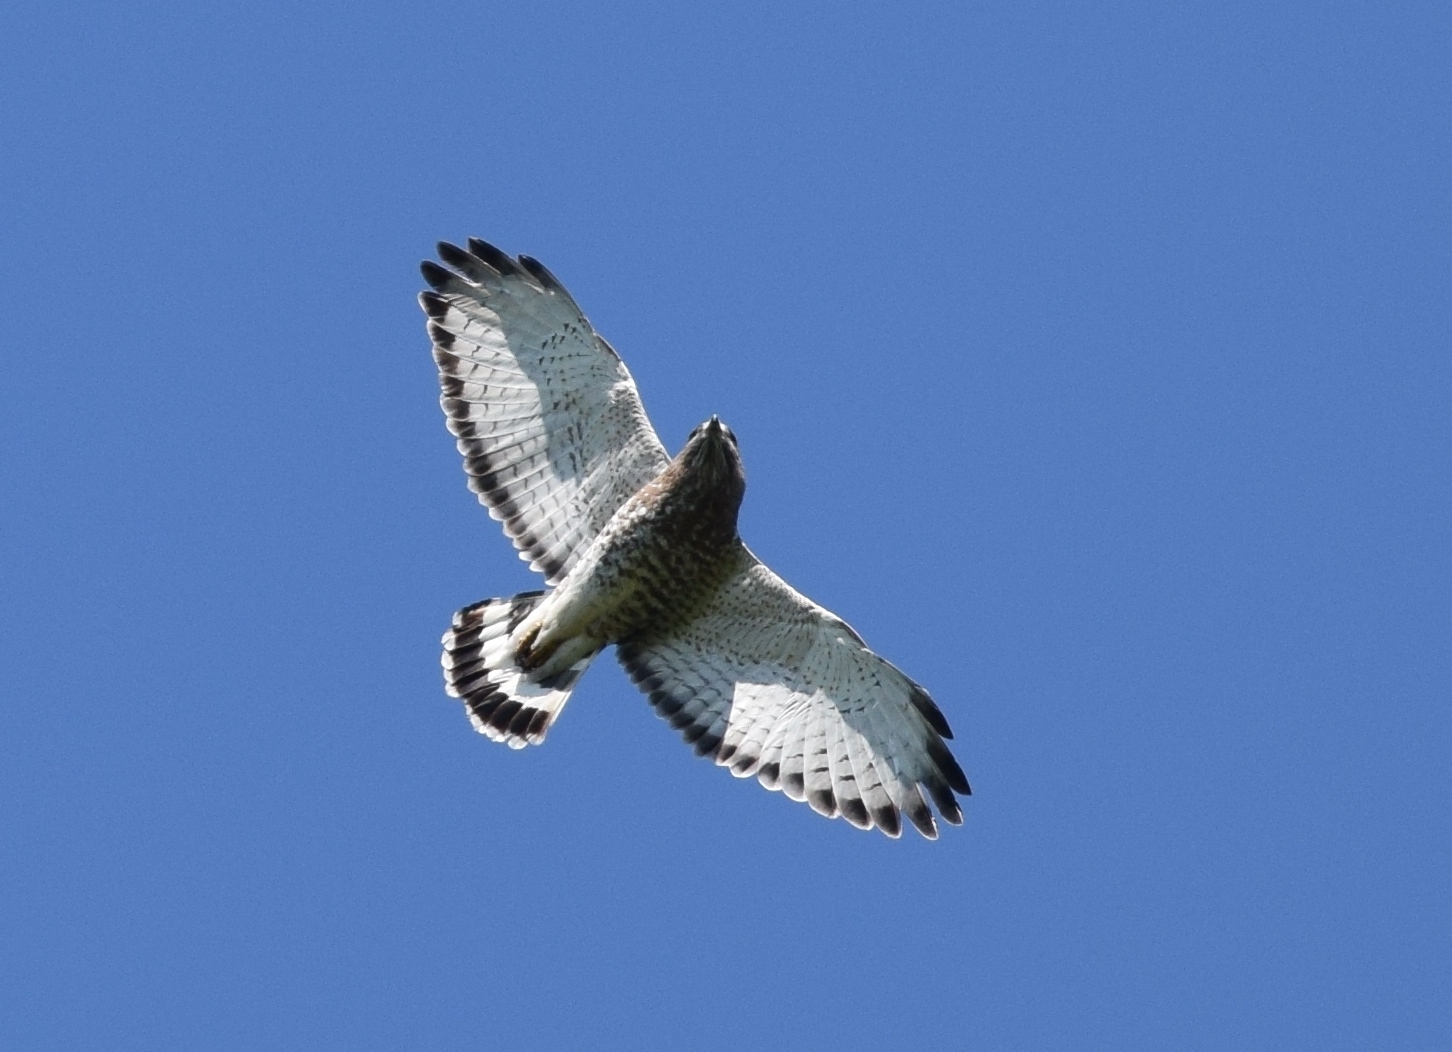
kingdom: Animalia
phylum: Chordata
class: Aves
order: Accipitriformes
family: Accipitridae
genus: Buteo
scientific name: Buteo platypterus
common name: Broad-winged hawk
